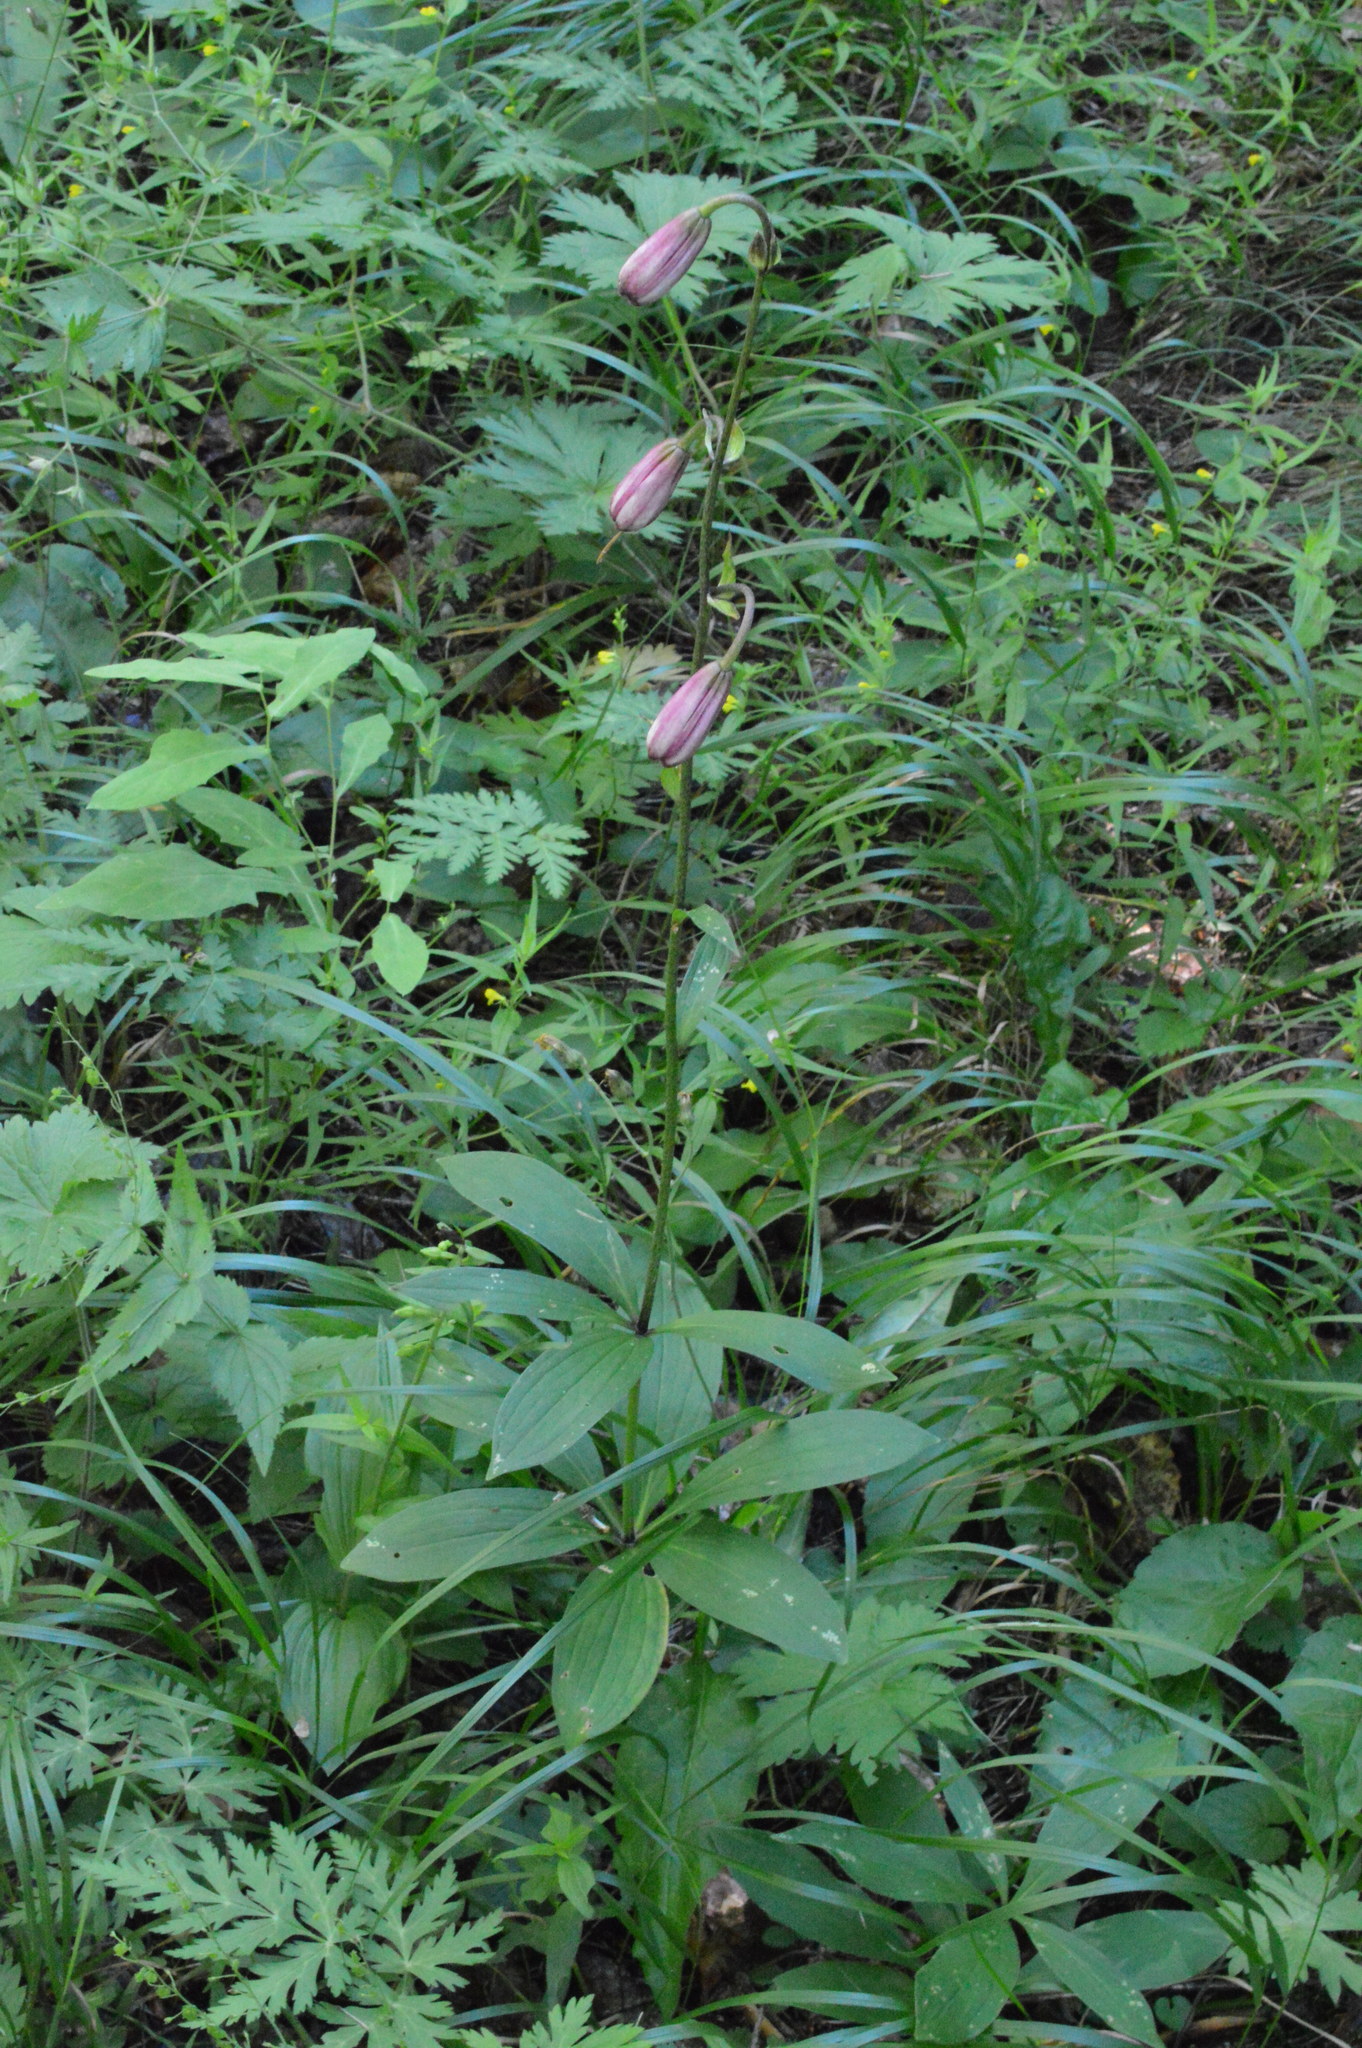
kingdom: Plantae
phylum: Tracheophyta
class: Liliopsida
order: Liliales
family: Liliaceae
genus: Lilium
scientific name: Lilium martagon
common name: Martagon lily
